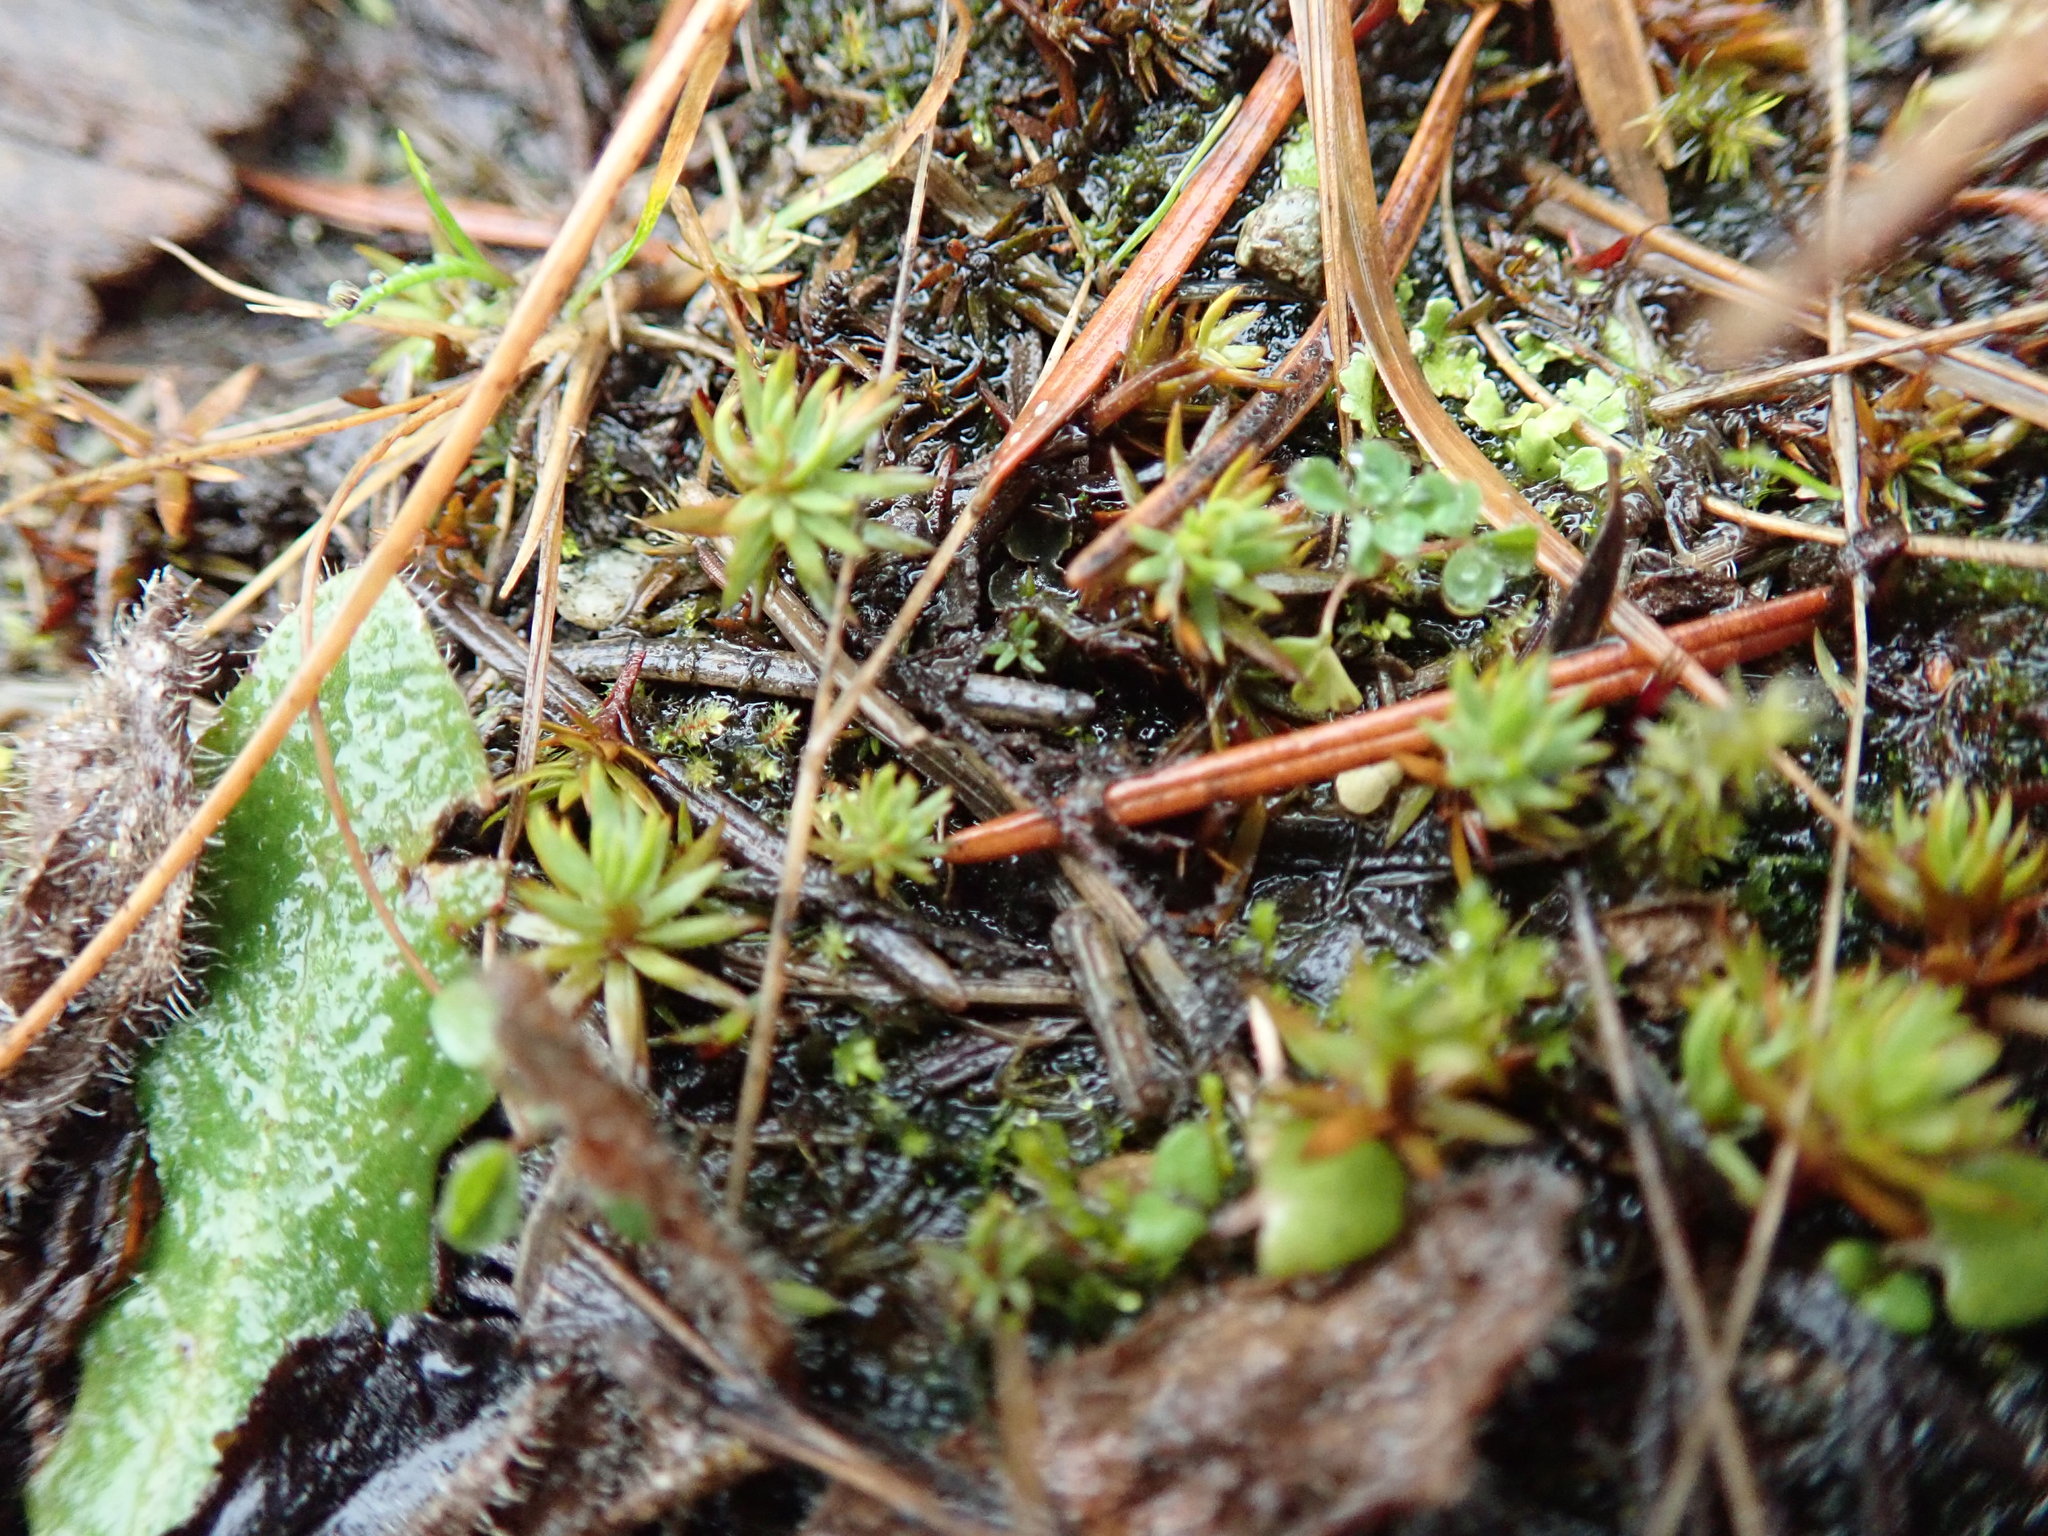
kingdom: Plantae
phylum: Bryophyta
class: Polytrichopsida
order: Polytrichales
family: Polytrichaceae
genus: Pogonatum
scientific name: Pogonatum urnigerum
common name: Urn hair moss
